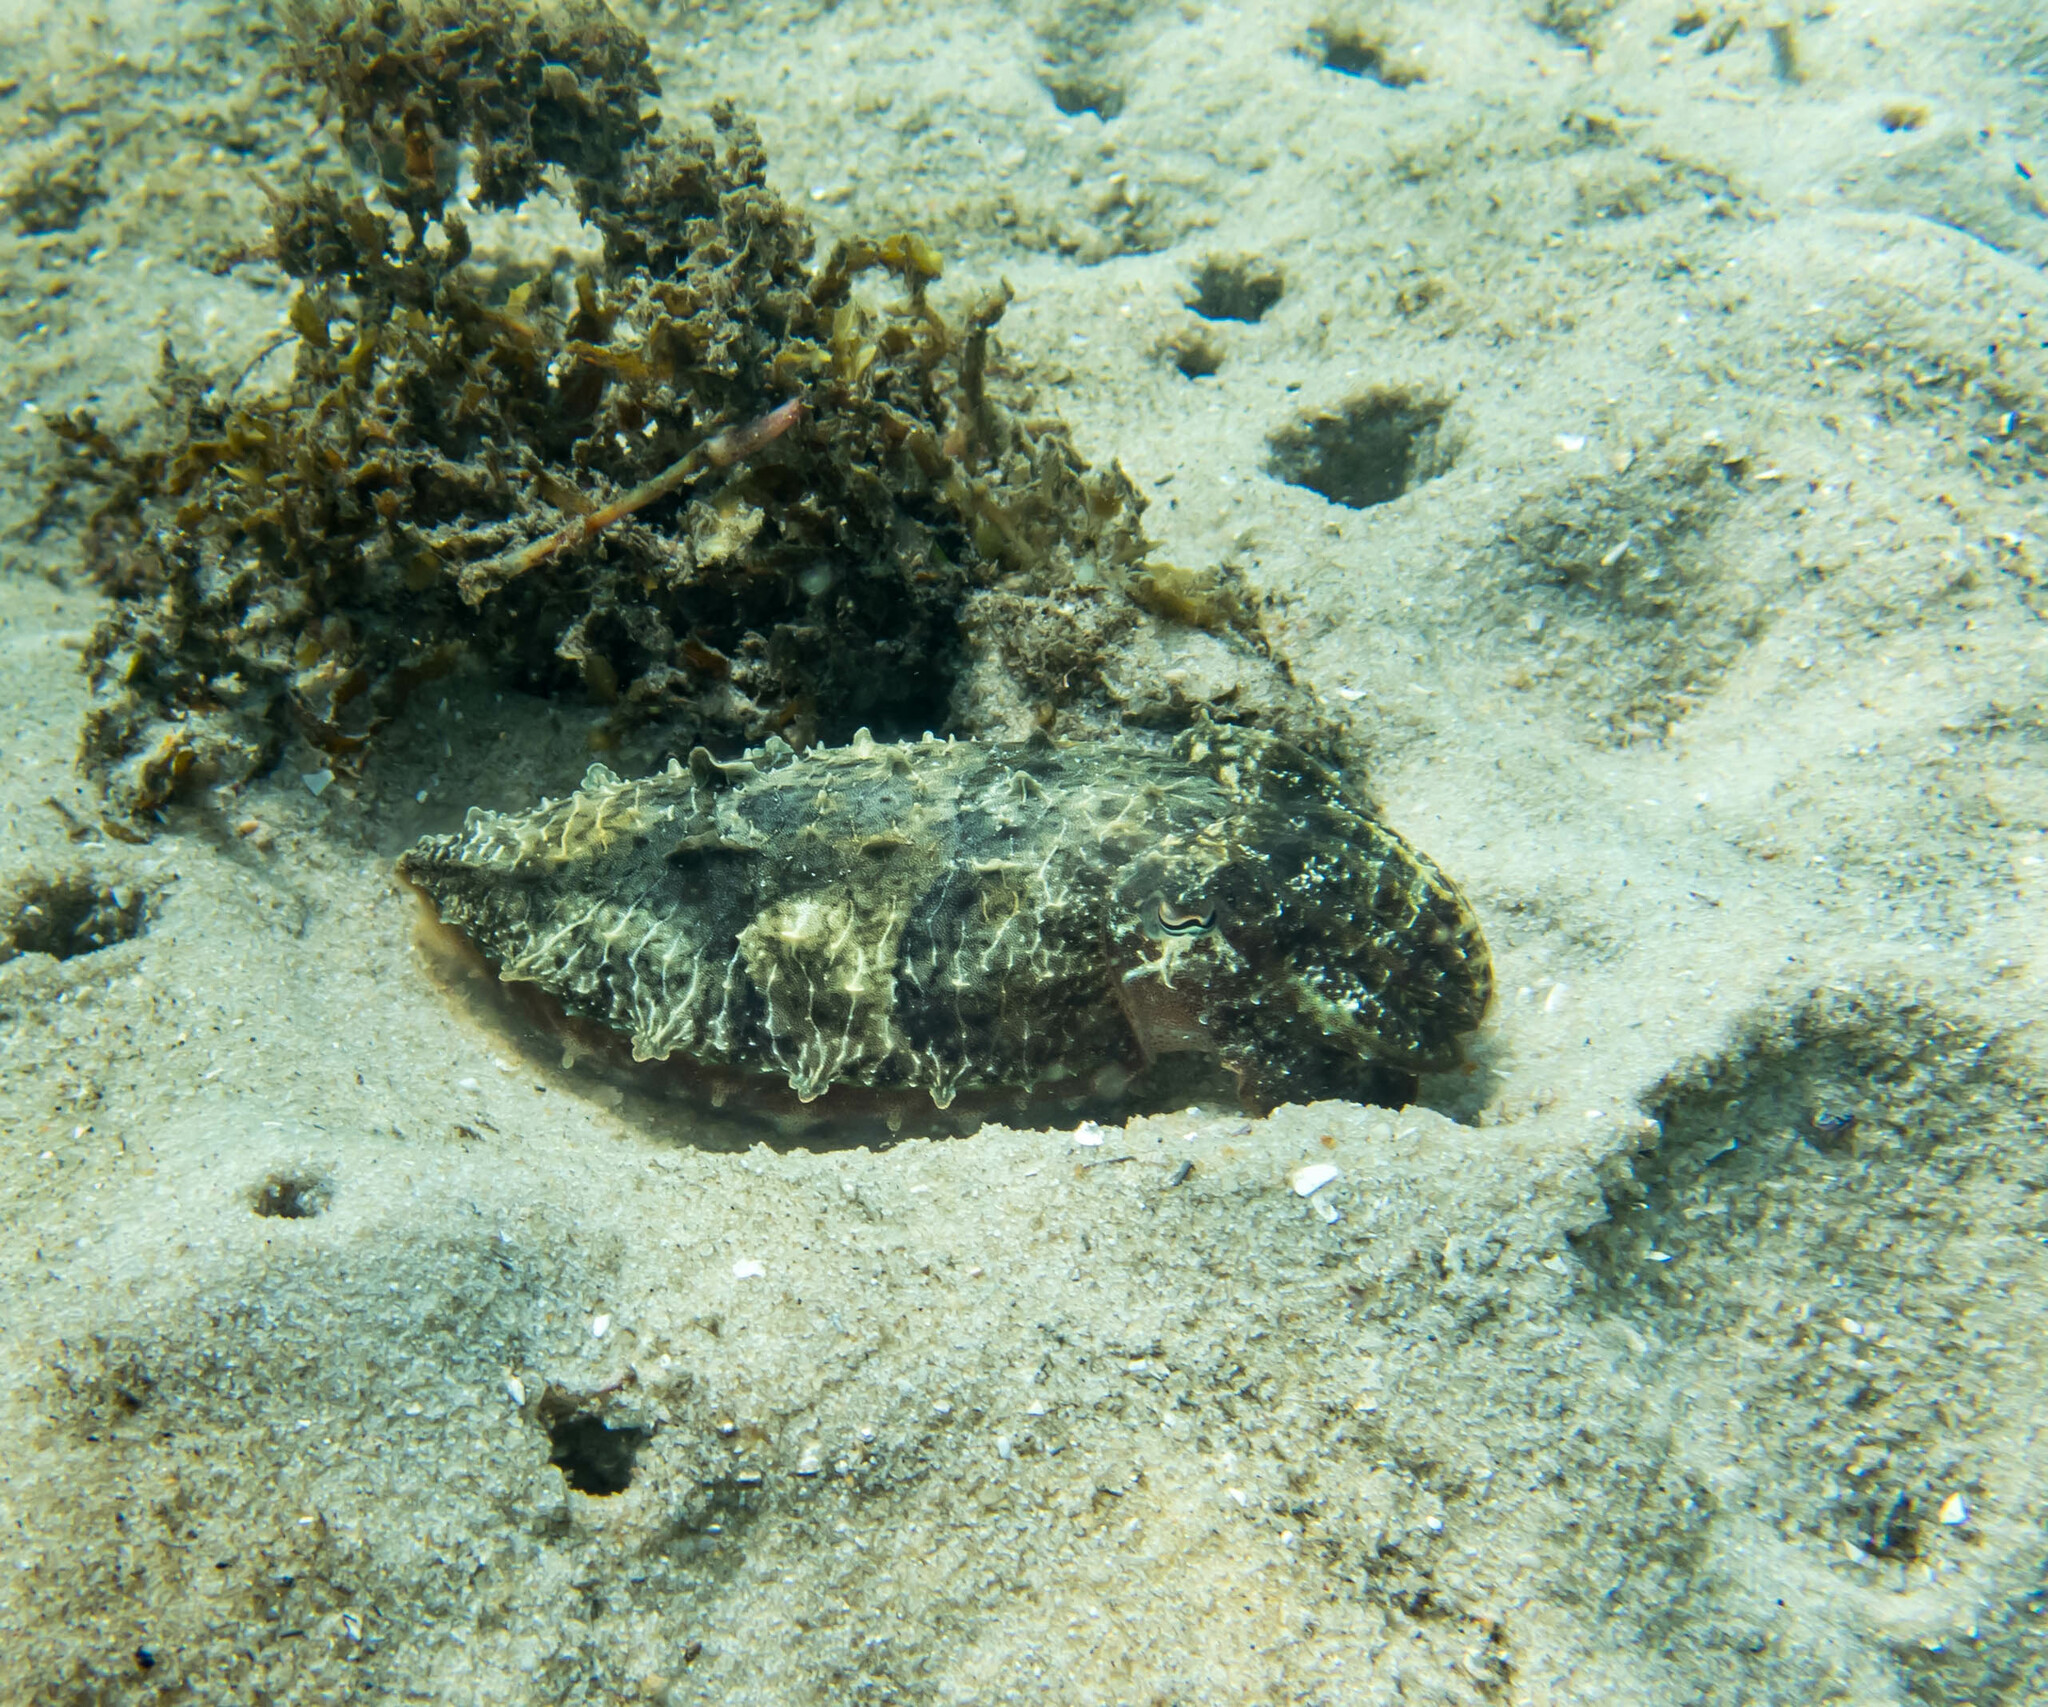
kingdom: Animalia
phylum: Mollusca
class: Cephalopoda
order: Sepiida
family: Sepiidae
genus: Ascarosepion
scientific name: Ascarosepion plangon
